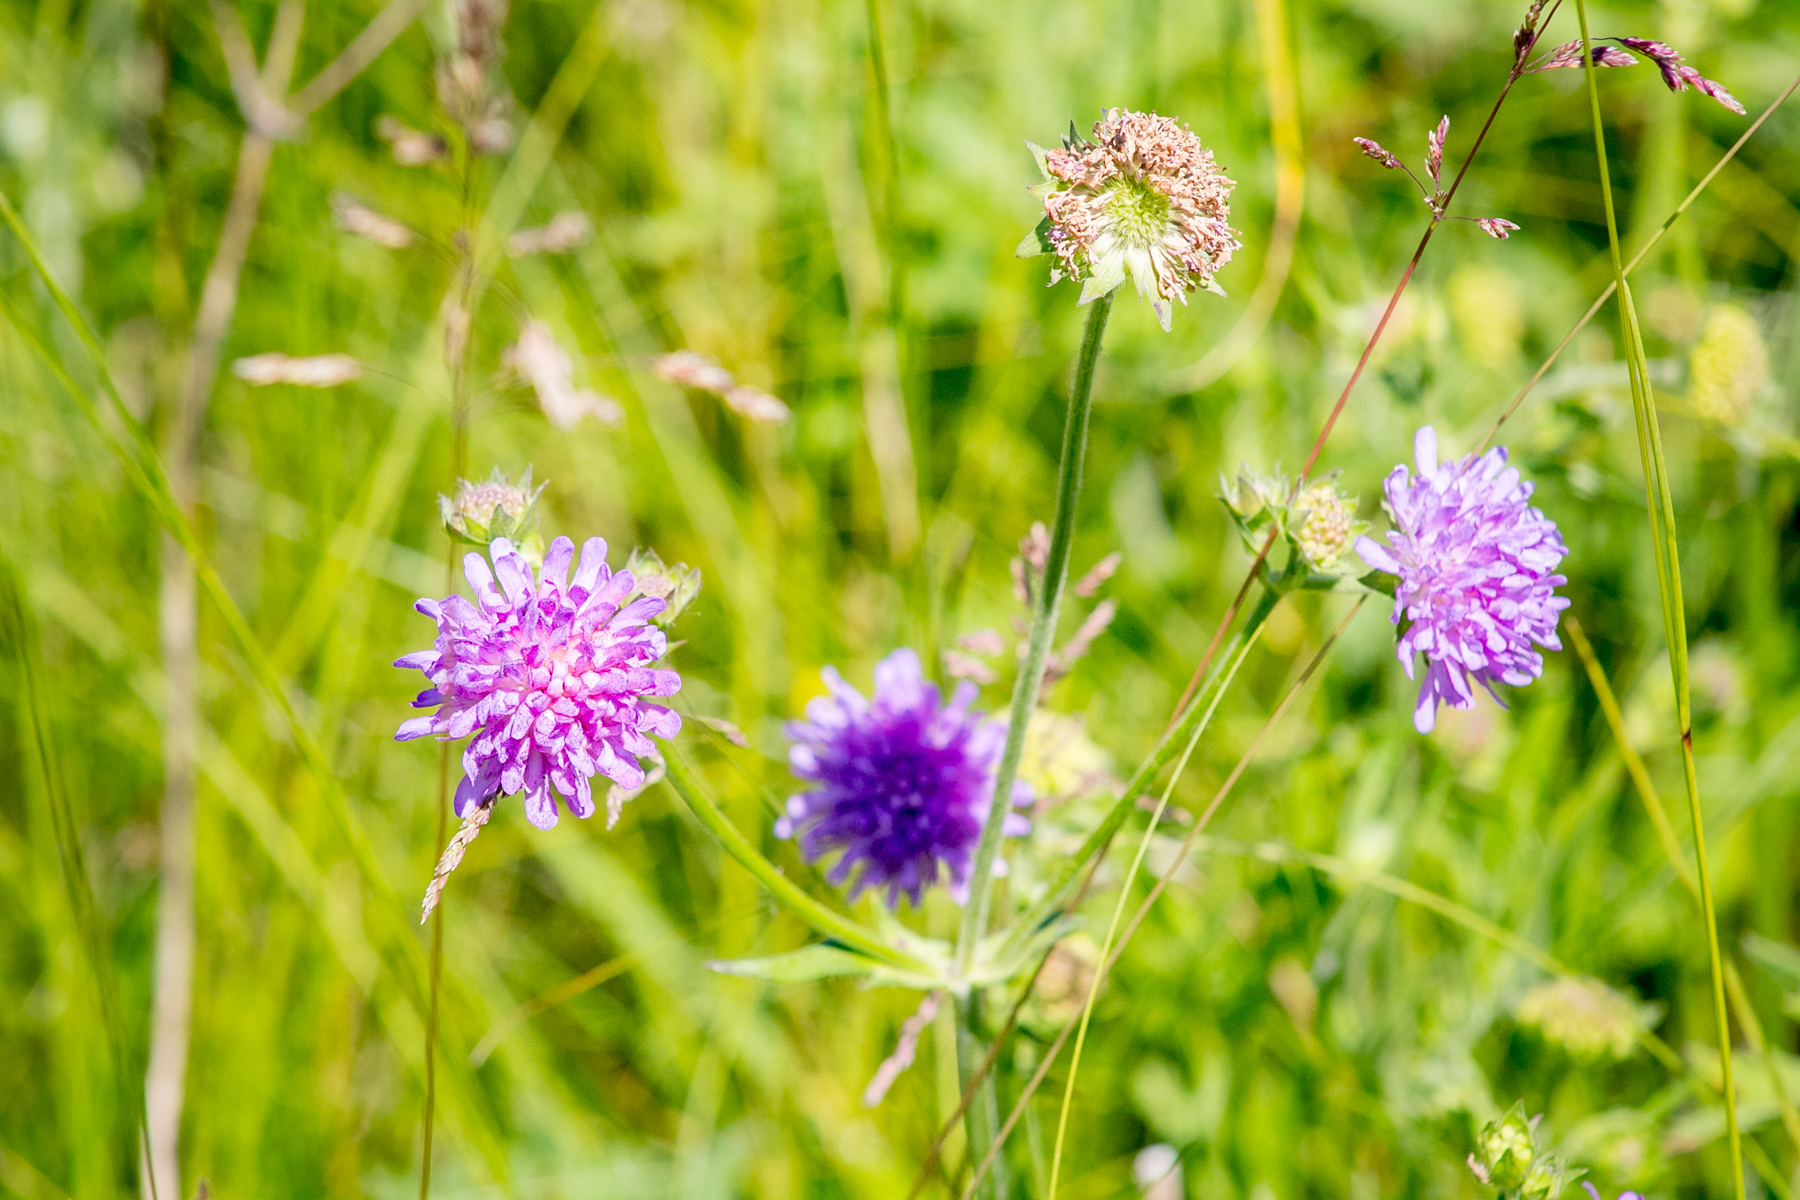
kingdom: Plantae
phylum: Tracheophyta
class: Magnoliopsida
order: Dipsacales
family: Caprifoliaceae
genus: Knautia
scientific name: Knautia arvensis
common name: Field scabiosa
